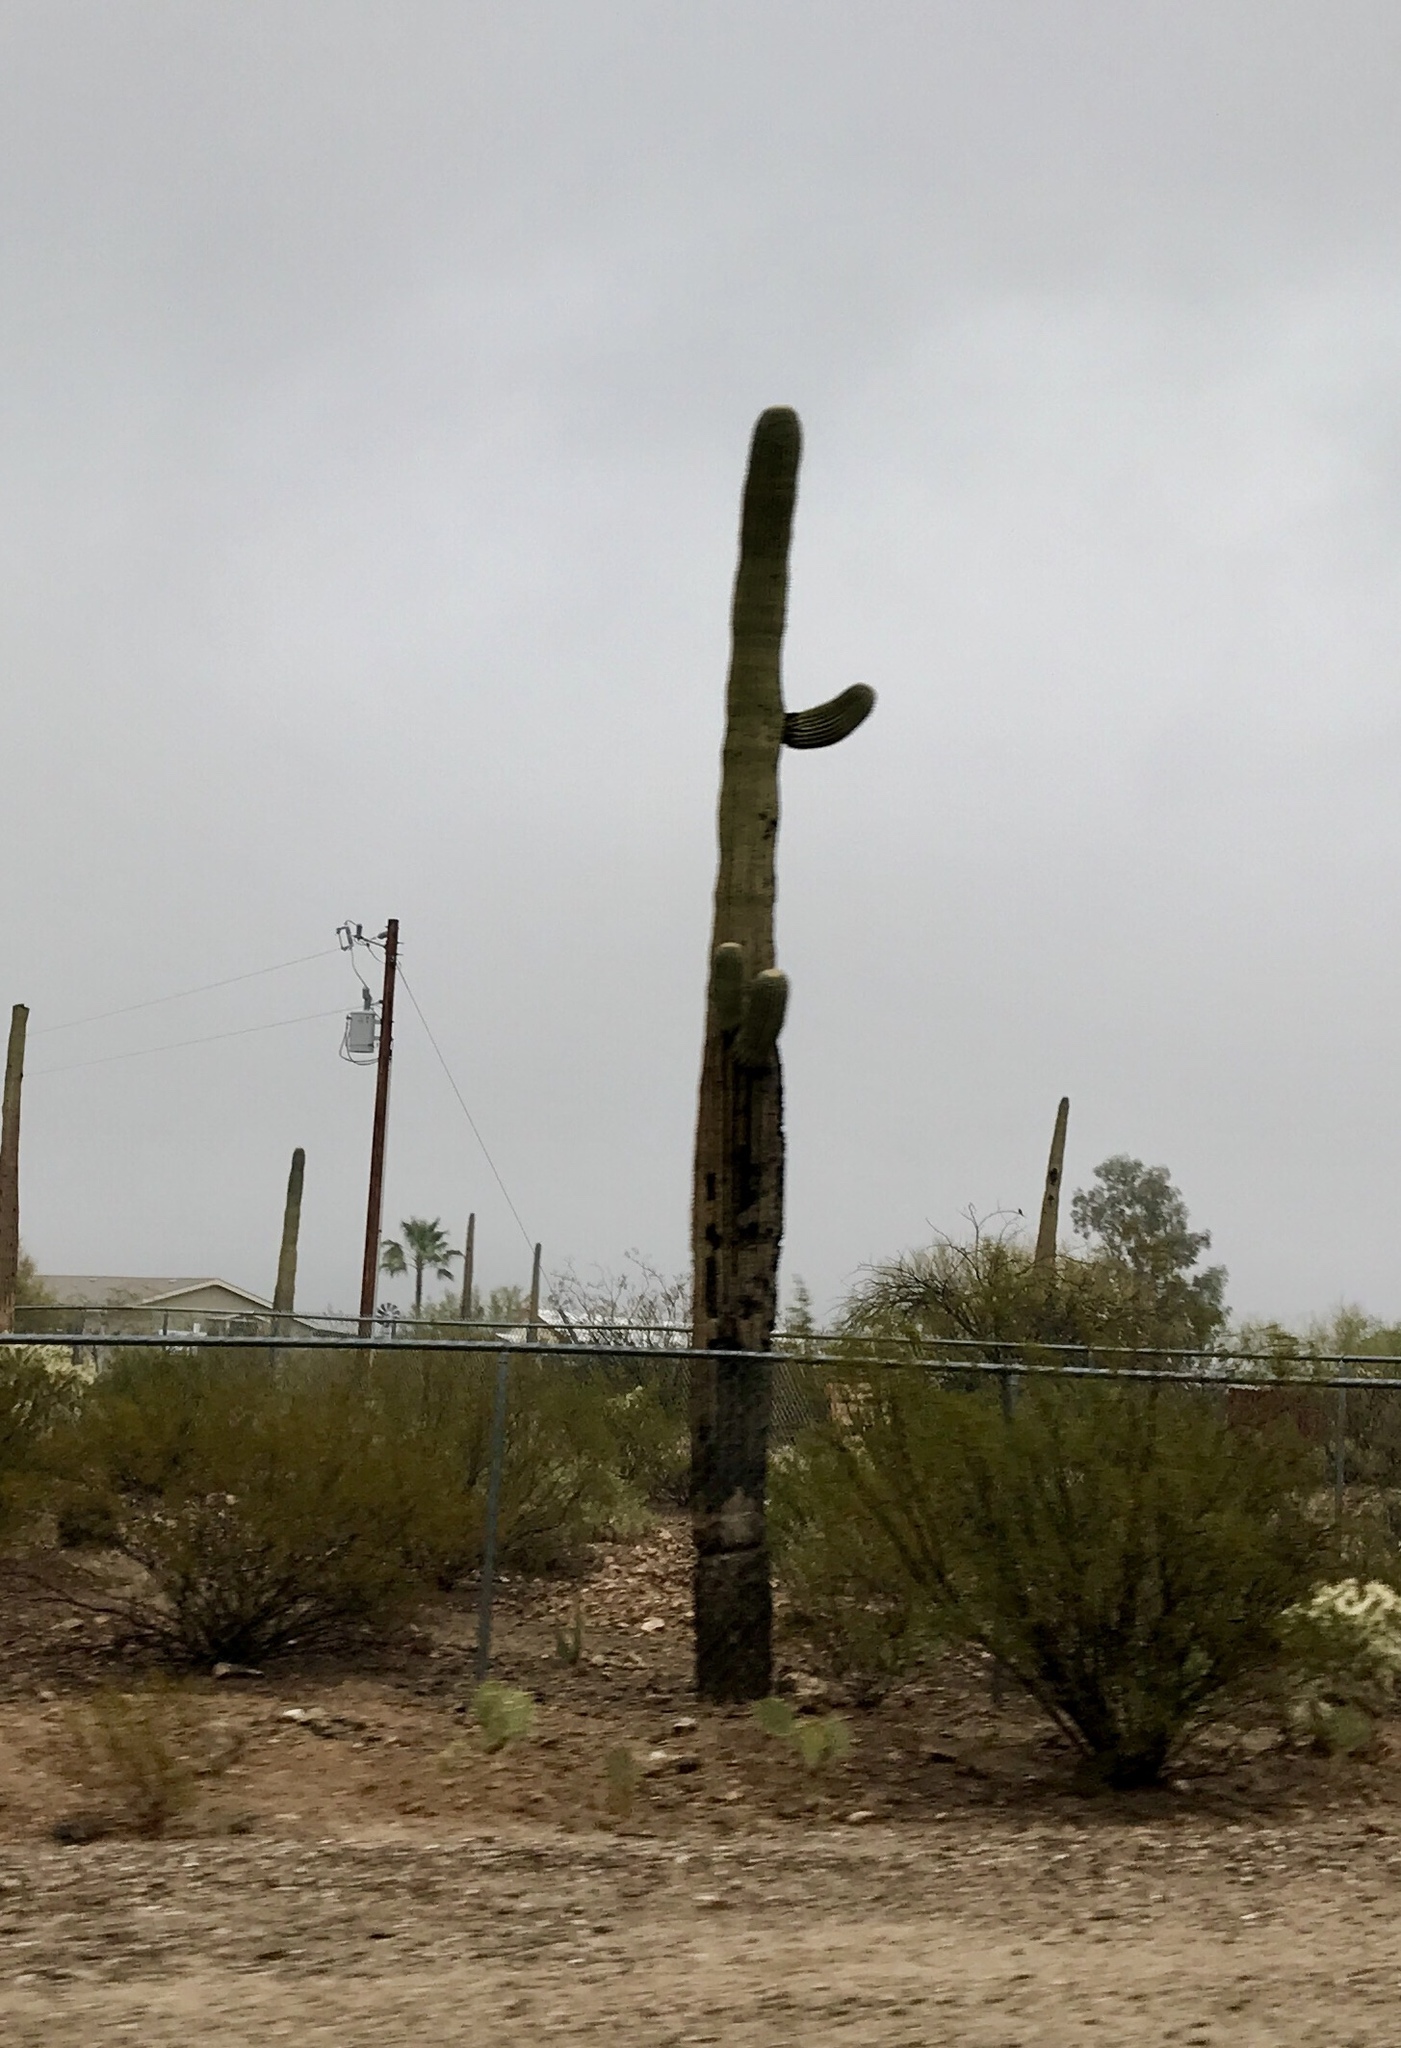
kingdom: Plantae
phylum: Tracheophyta
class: Magnoliopsida
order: Caryophyllales
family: Cactaceae
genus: Carnegiea
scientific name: Carnegiea gigantea
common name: Saguaro
